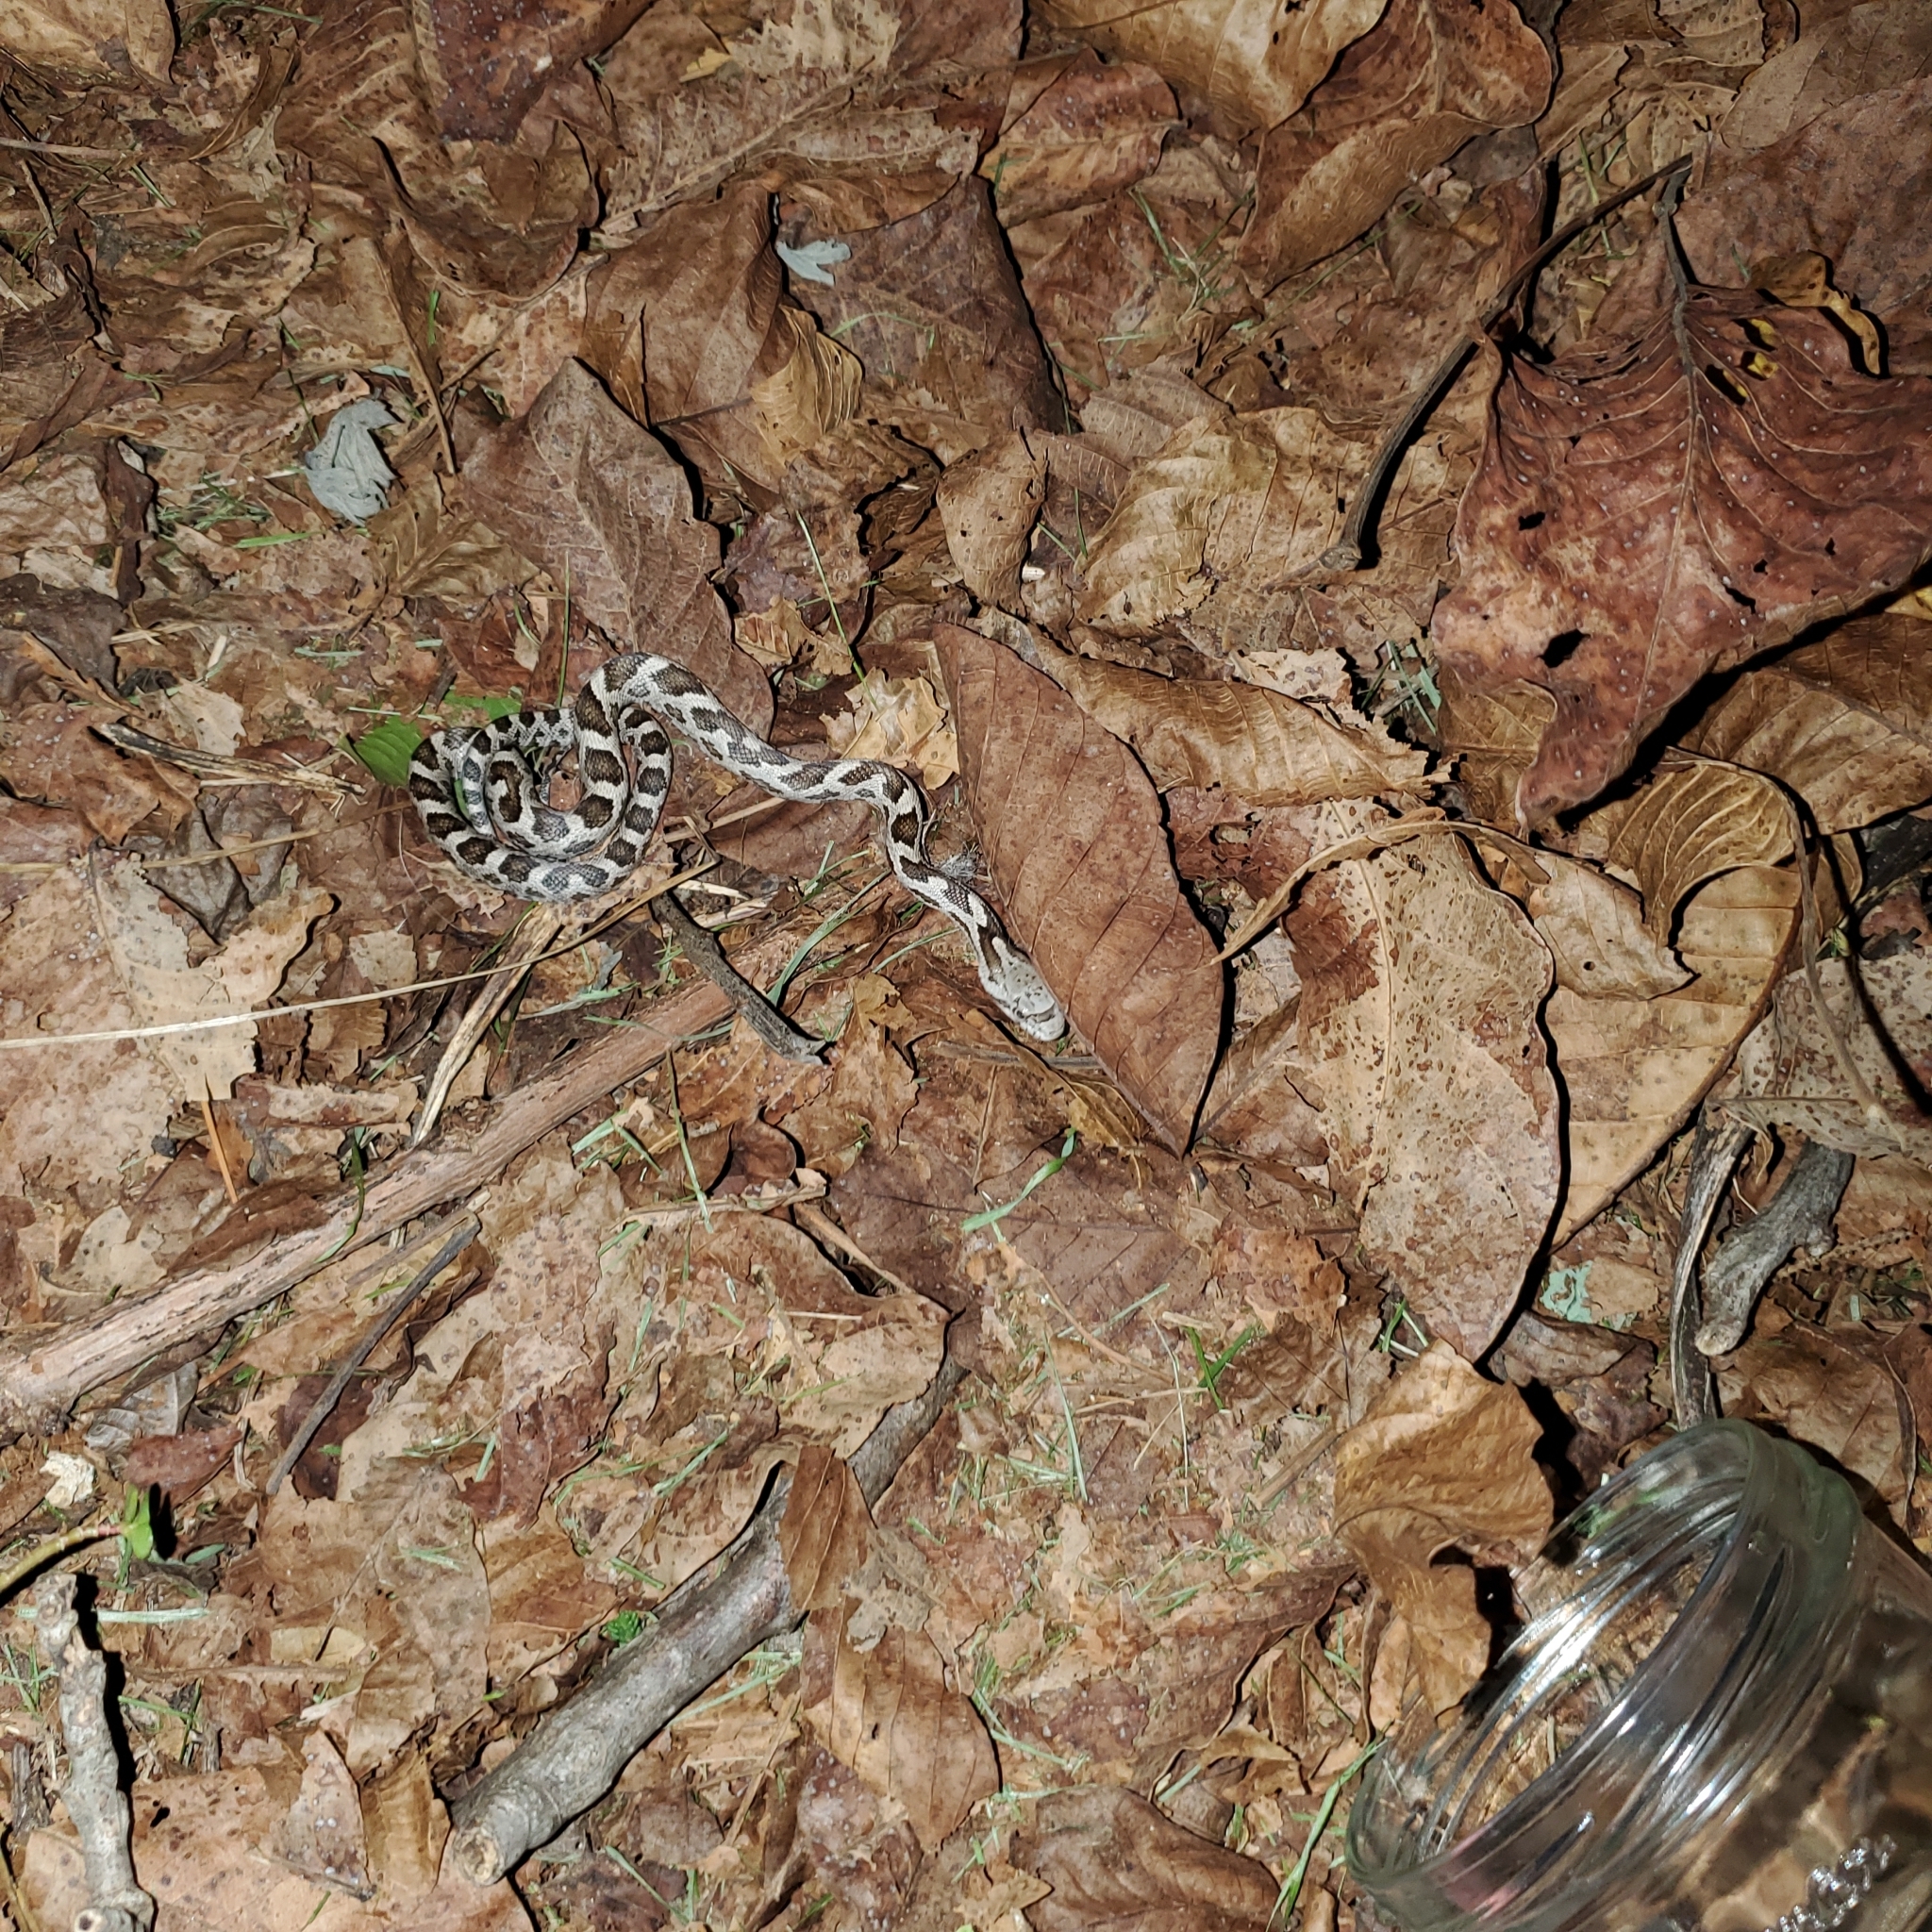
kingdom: Animalia
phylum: Chordata
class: Squamata
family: Colubridae
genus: Pantherophis
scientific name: Pantherophis
